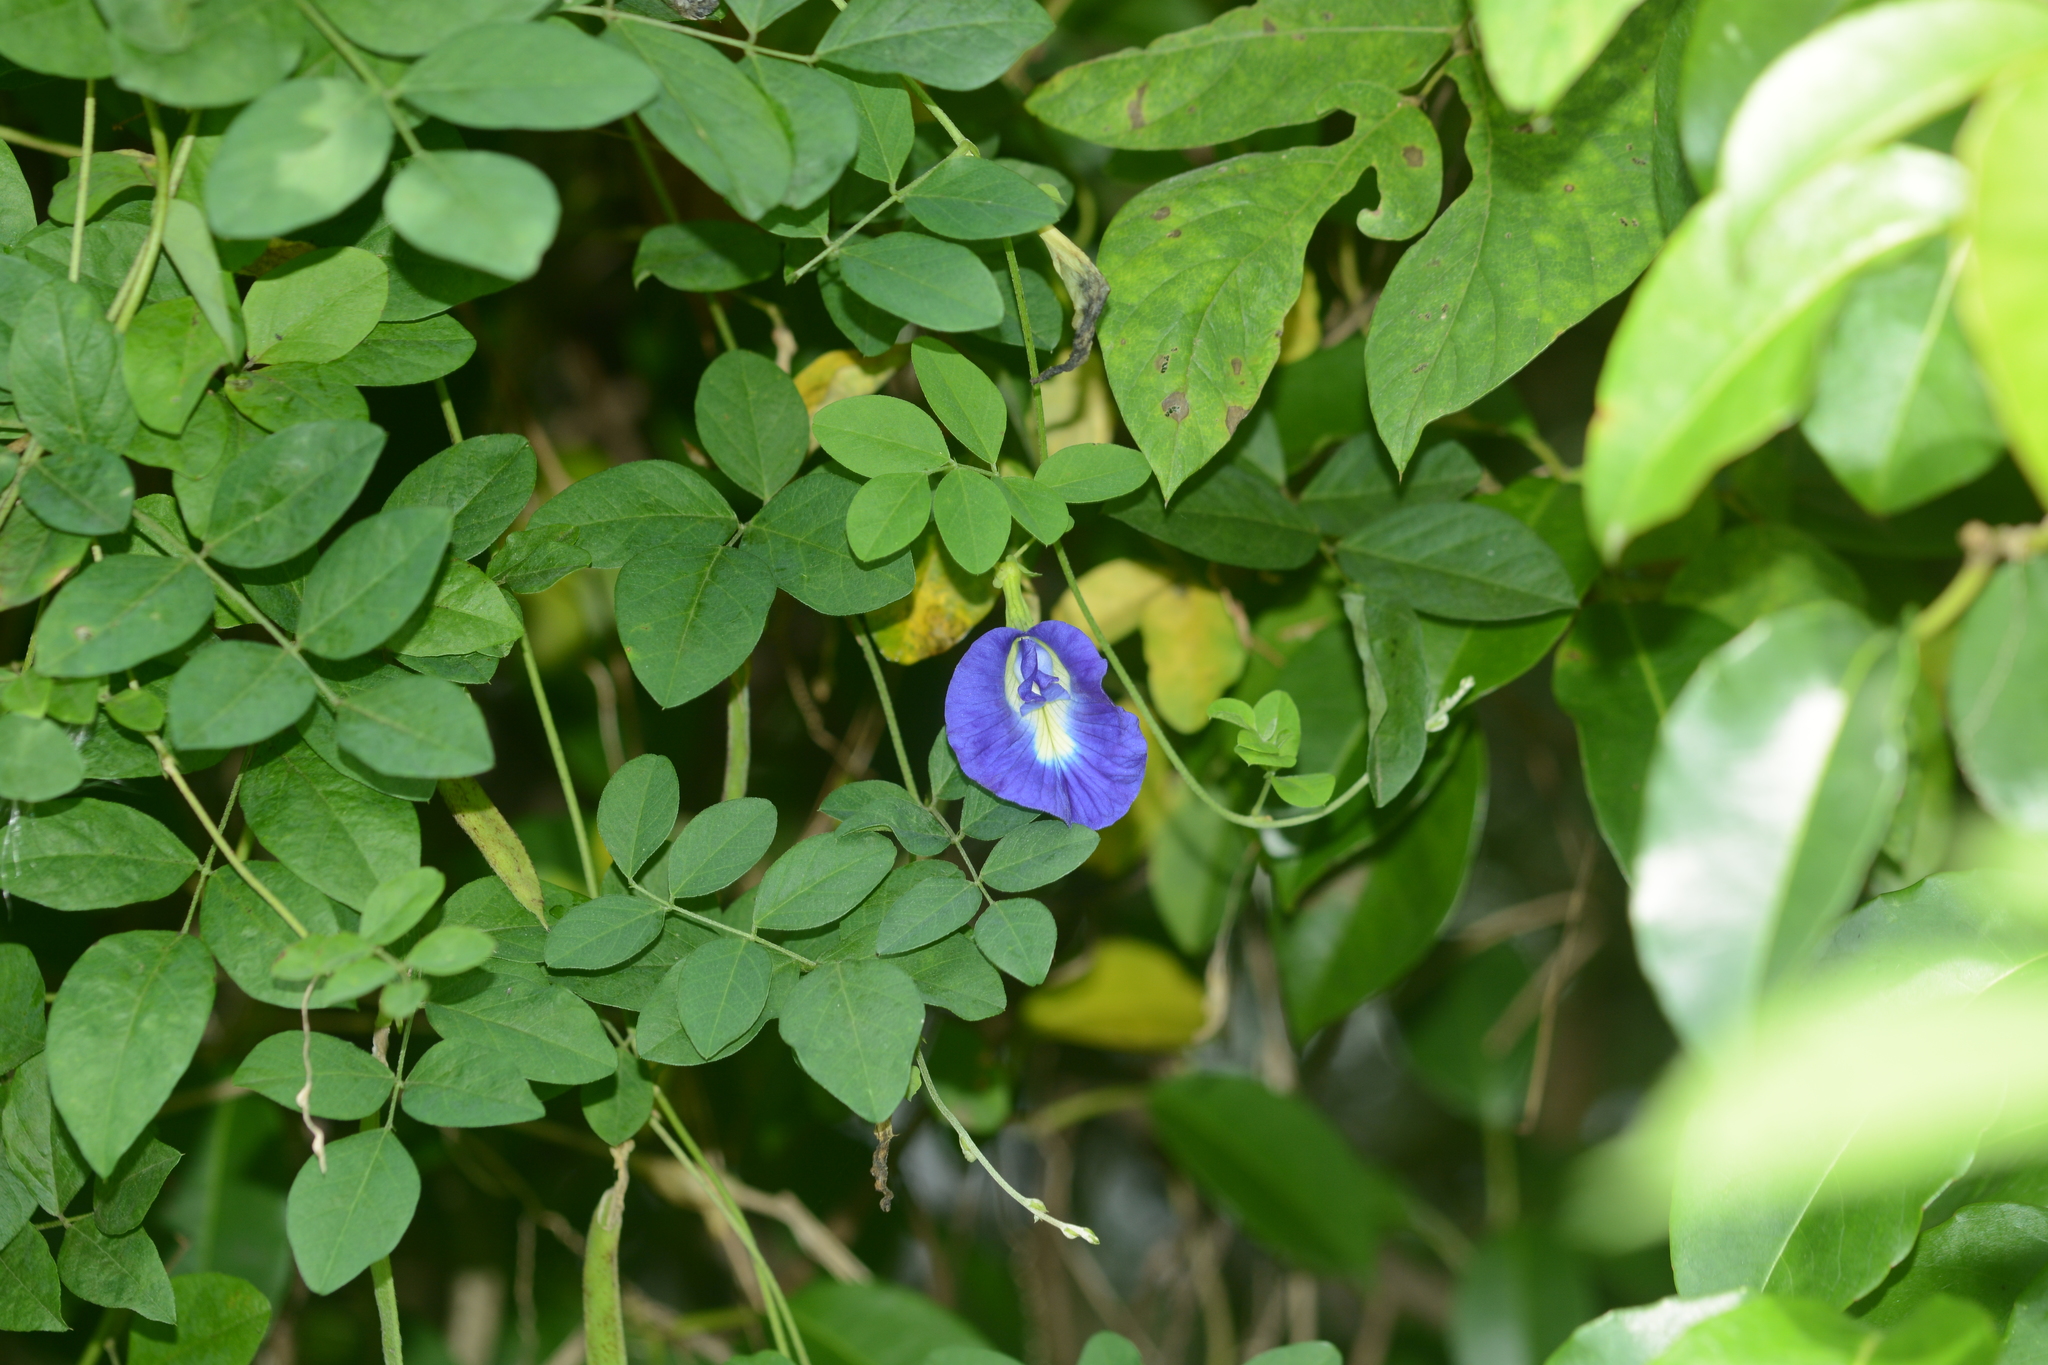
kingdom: Plantae
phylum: Tracheophyta
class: Magnoliopsida
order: Fabales
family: Fabaceae
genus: Clitoria
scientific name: Clitoria ternatea
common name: Asian pigeonwings
